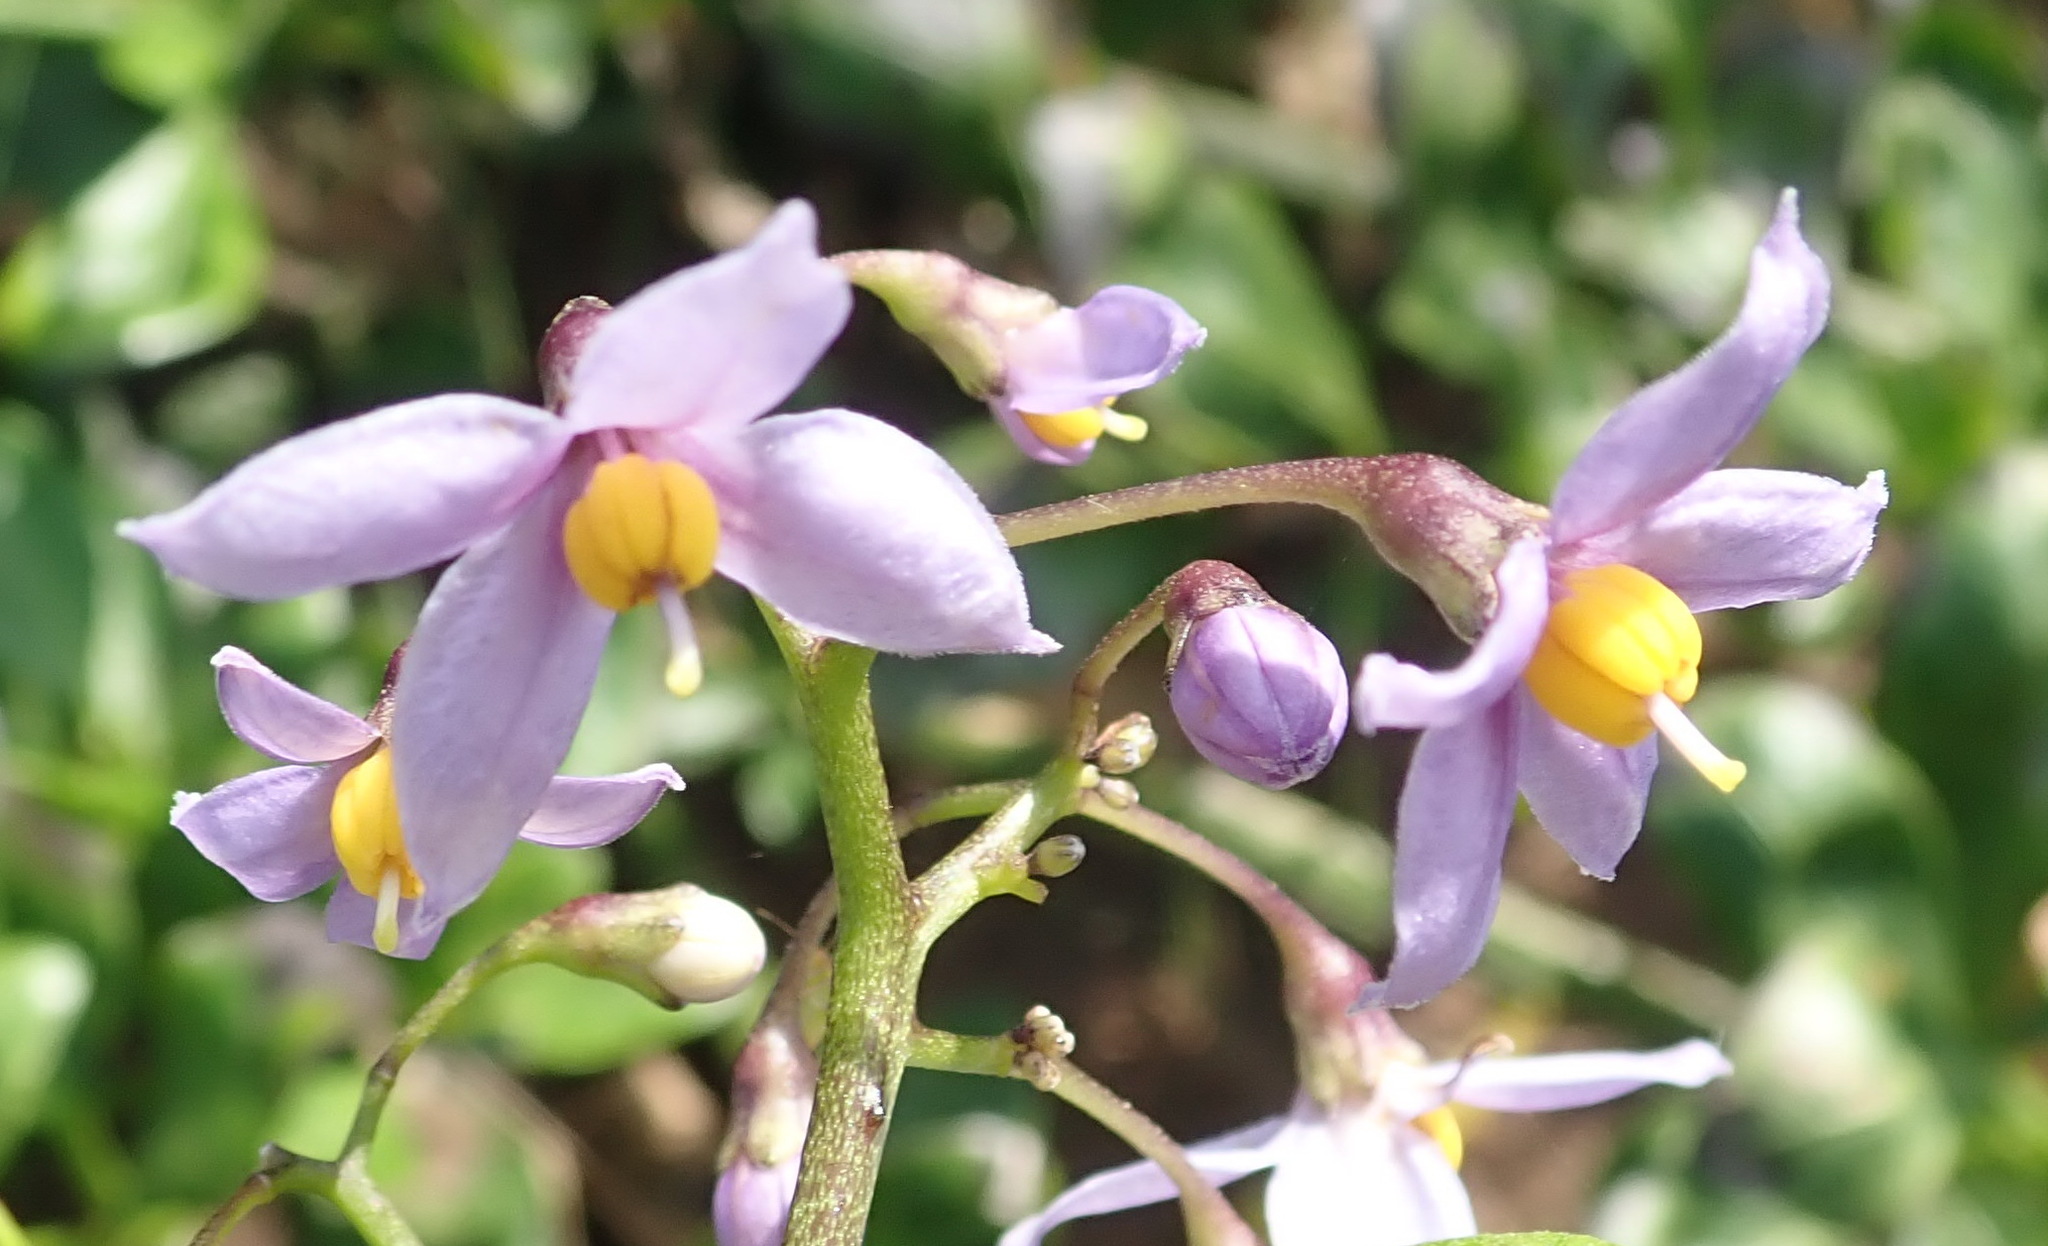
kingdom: Plantae
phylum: Tracheophyta
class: Magnoliopsida
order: Solanales
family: Solanaceae
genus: Solanum
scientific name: Solanum africanum
